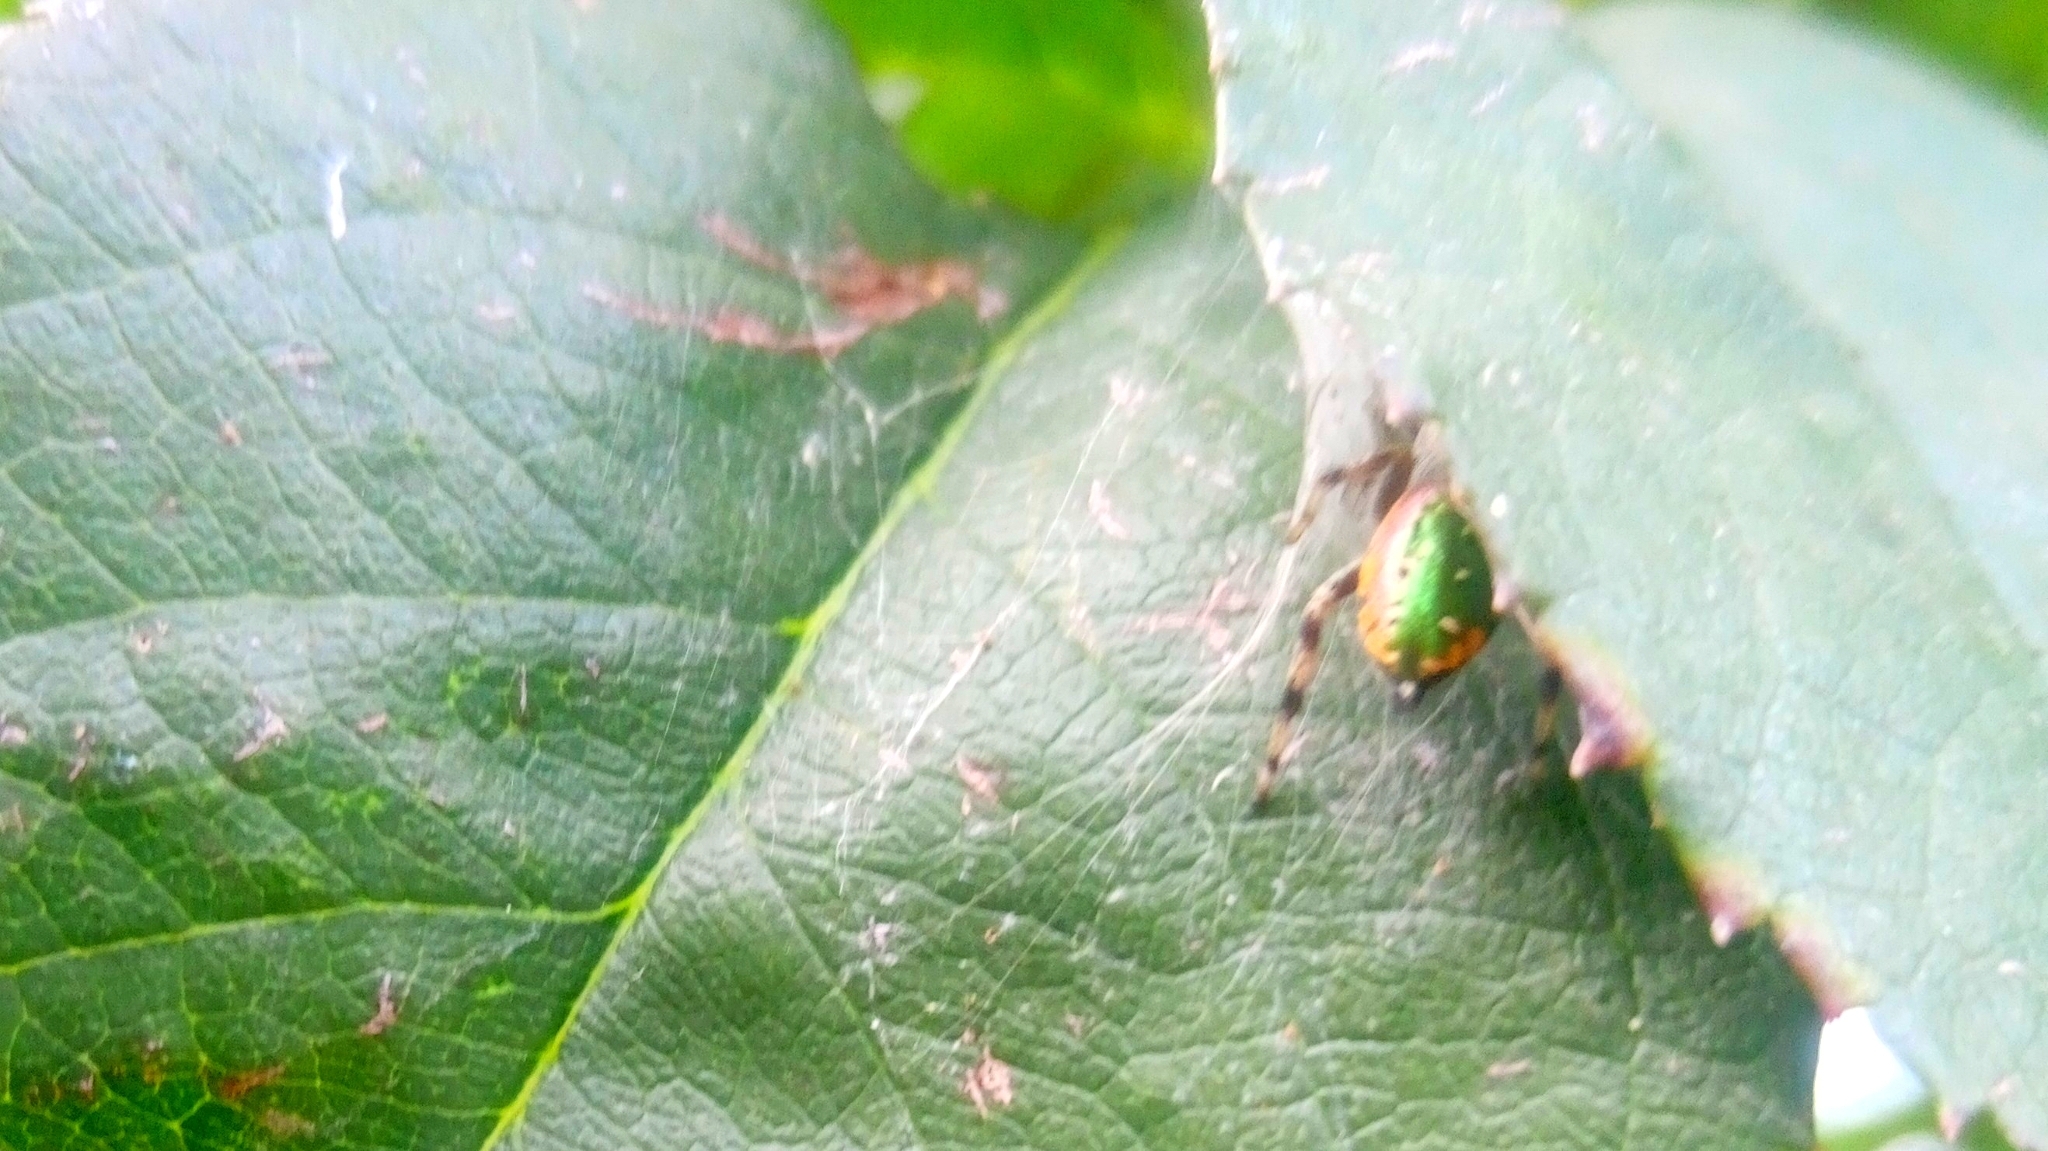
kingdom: Animalia
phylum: Arthropoda
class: Arachnida
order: Araneae
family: Salticidae
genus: Paraphidippus
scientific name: Paraphidippus aurantius
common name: Jumping spiders
